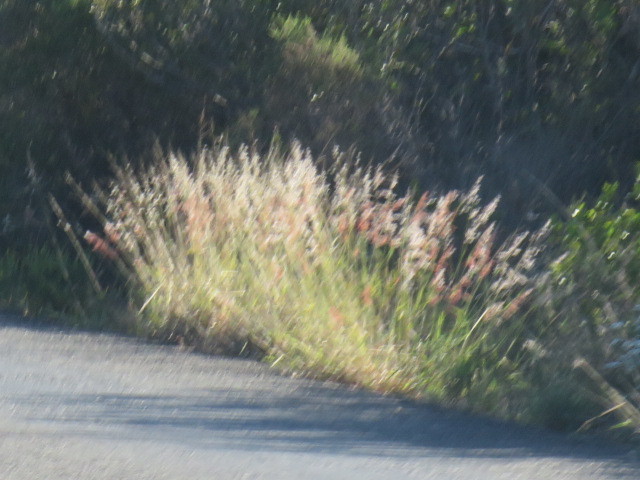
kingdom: Plantae
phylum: Tracheophyta
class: Liliopsida
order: Poales
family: Poaceae
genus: Melinis
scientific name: Melinis repens
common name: Rose natal grass
